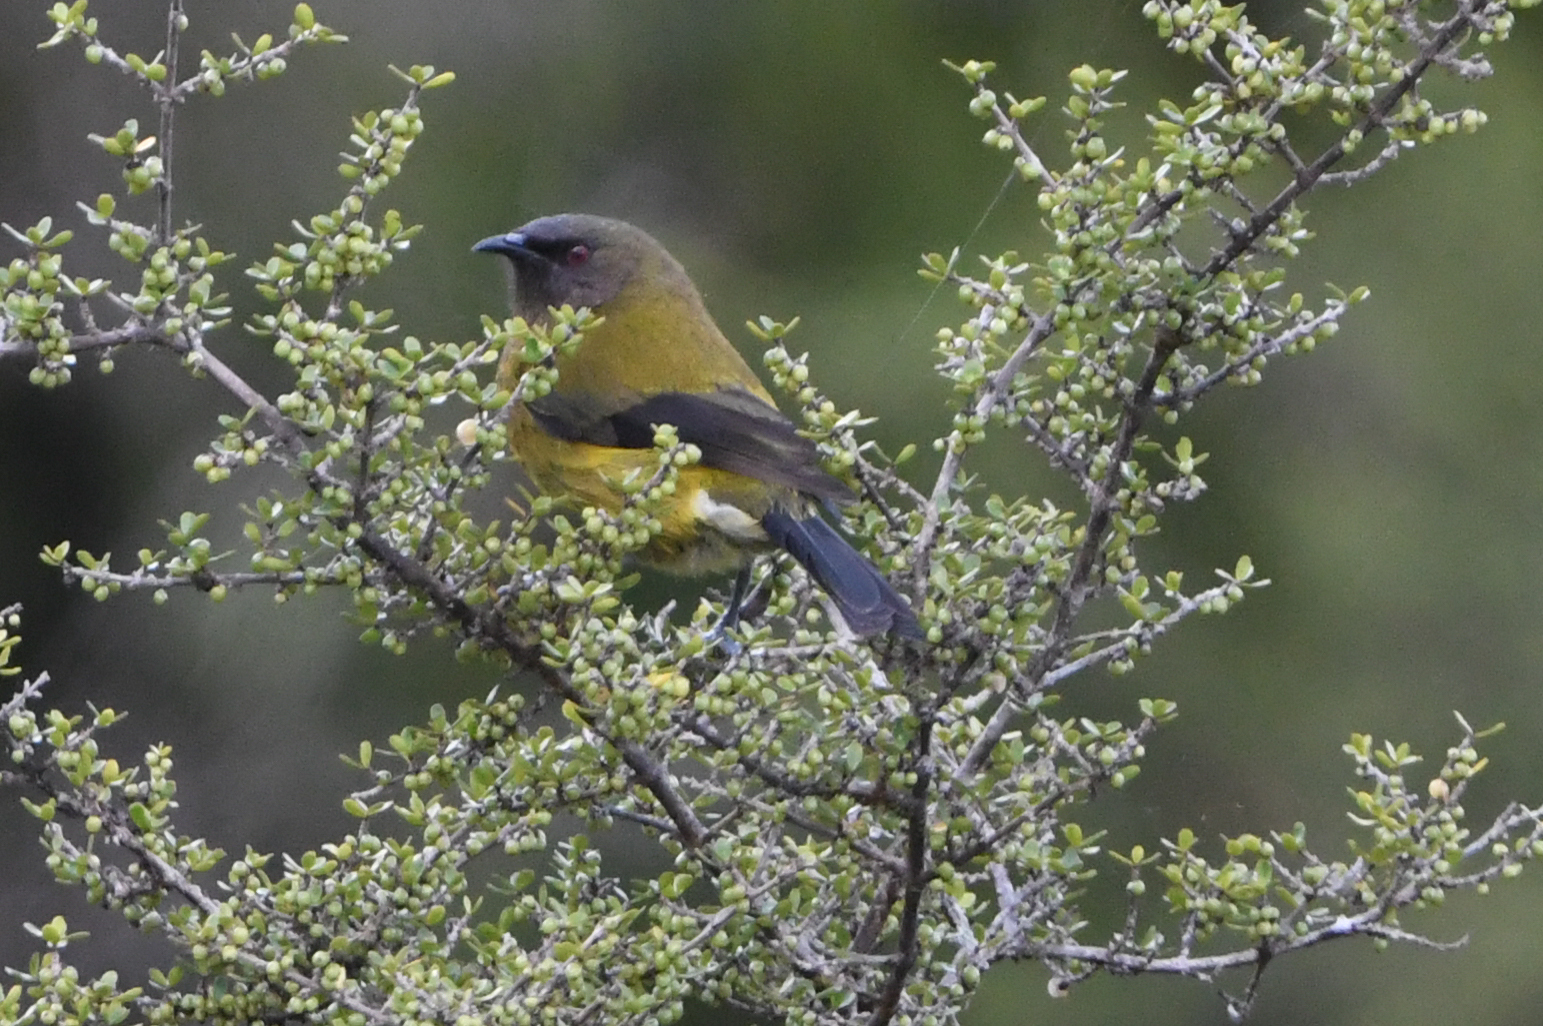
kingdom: Animalia
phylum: Chordata
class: Aves
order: Passeriformes
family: Meliphagidae
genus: Anthornis
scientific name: Anthornis melanura
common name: New zealand bellbird
